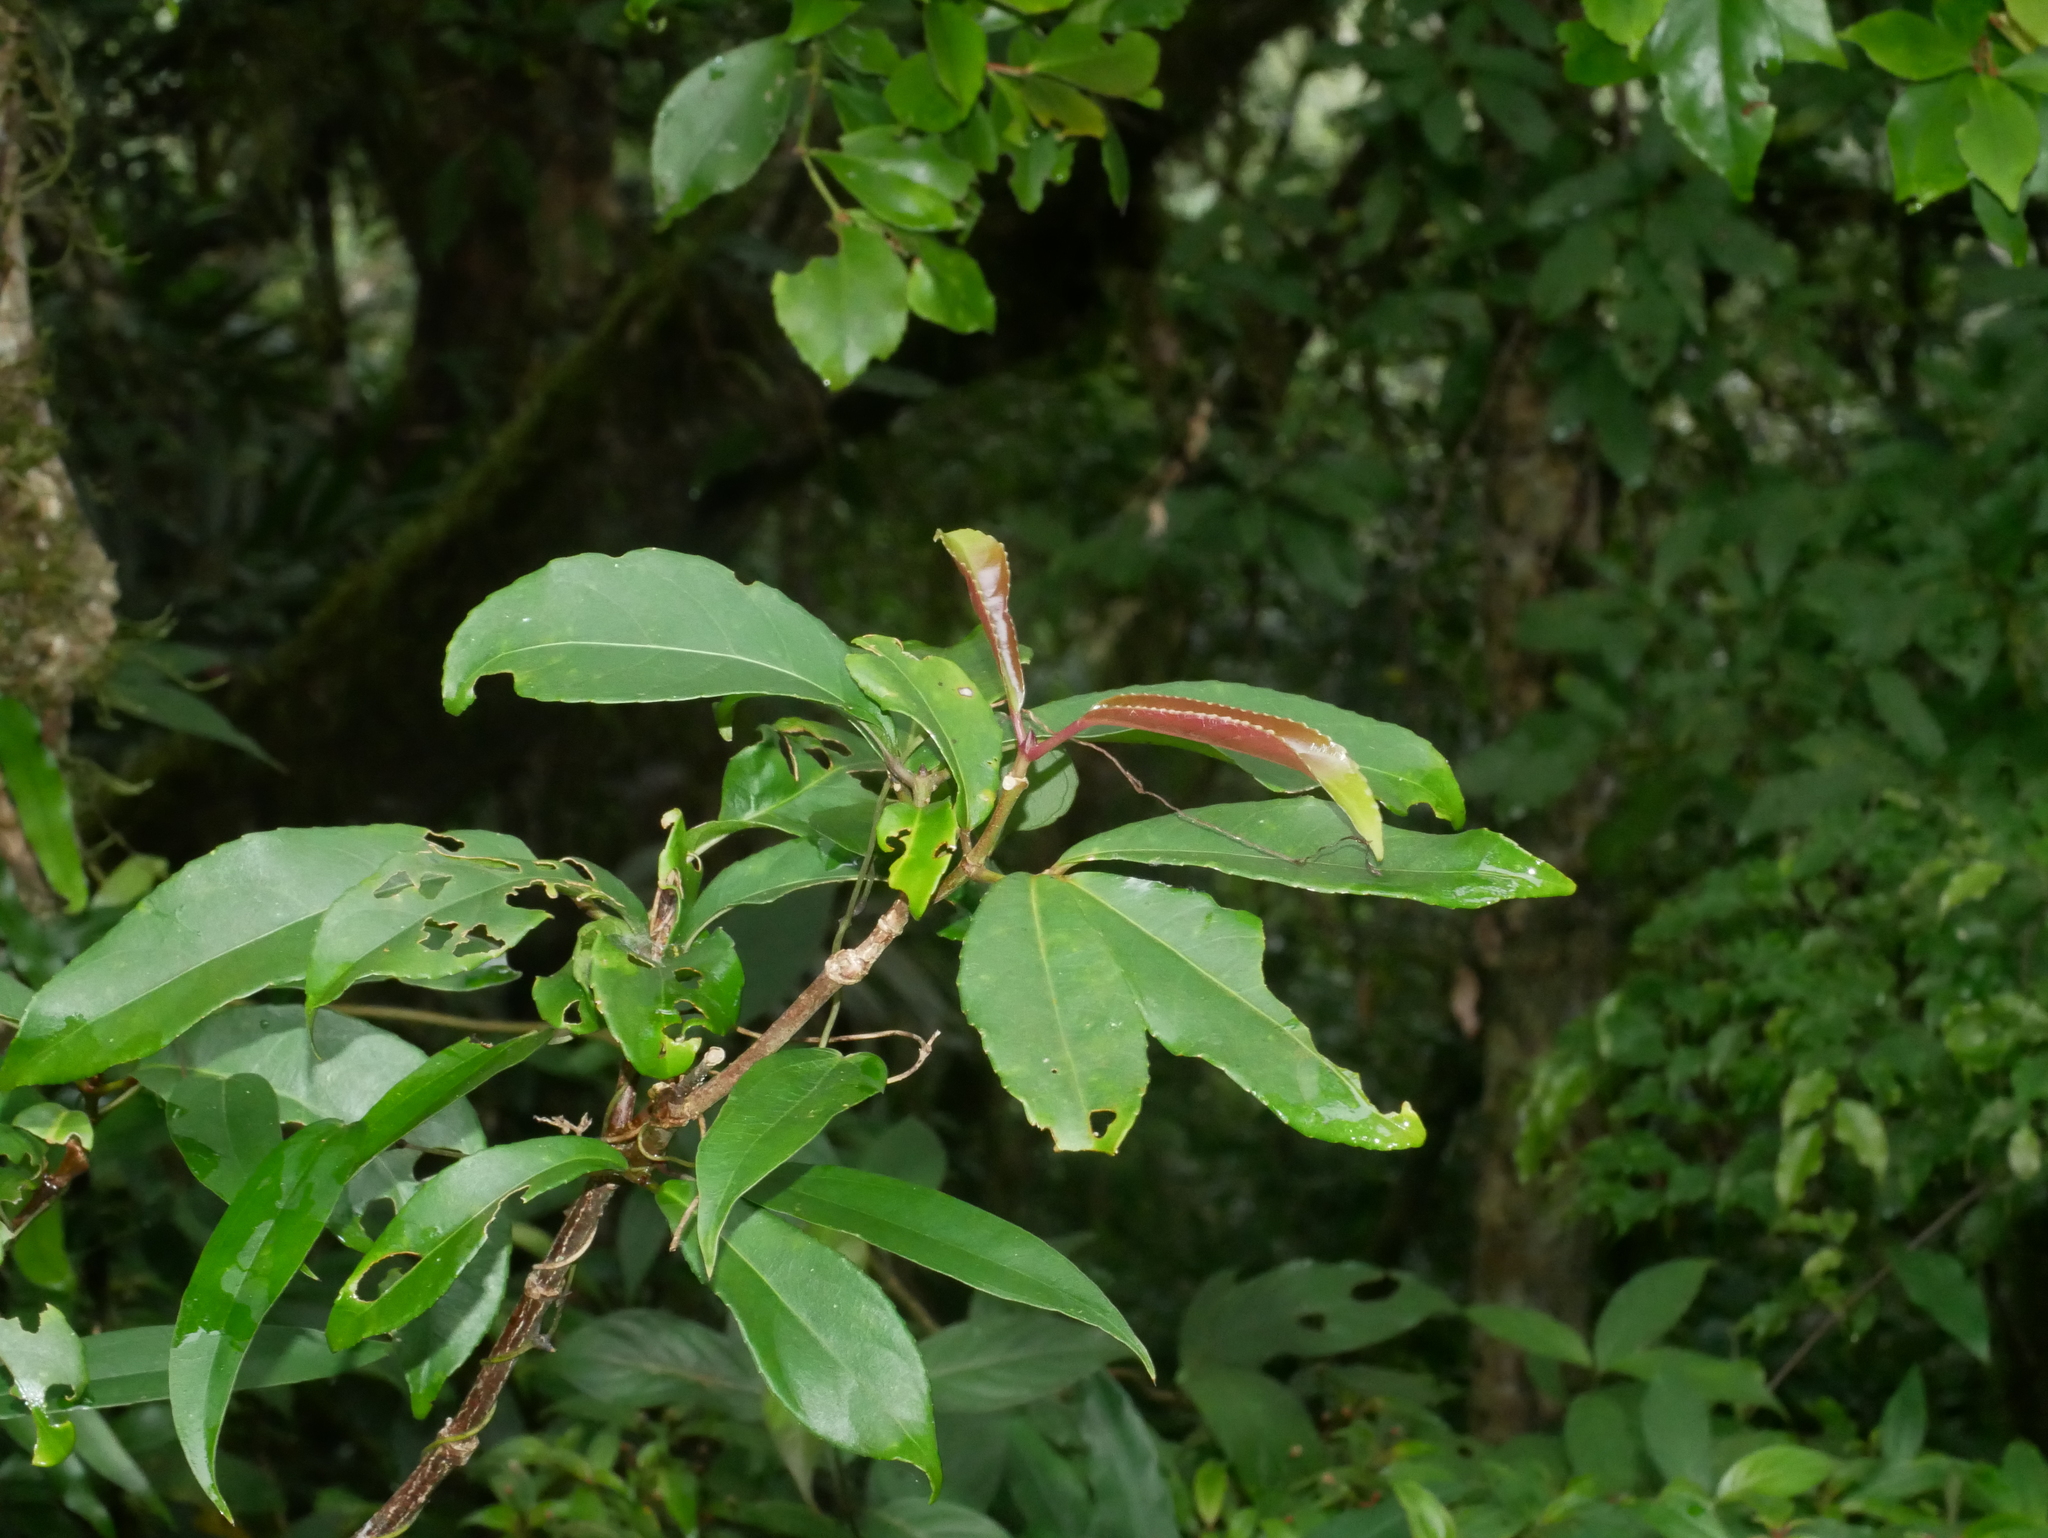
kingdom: Plantae
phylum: Tracheophyta
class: Magnoliopsida
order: Crossosomatales
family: Staphyleaceae
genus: Turpinia
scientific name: Turpinia ternata
